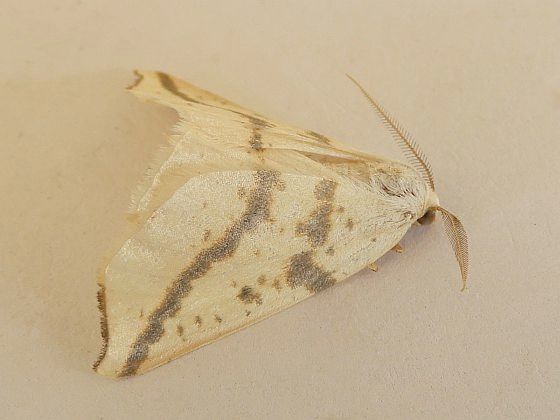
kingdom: Animalia
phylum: Arthropoda
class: Insecta
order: Lepidoptera
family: Geometridae
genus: Neoterpes
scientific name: Neoterpes ephelidaria
